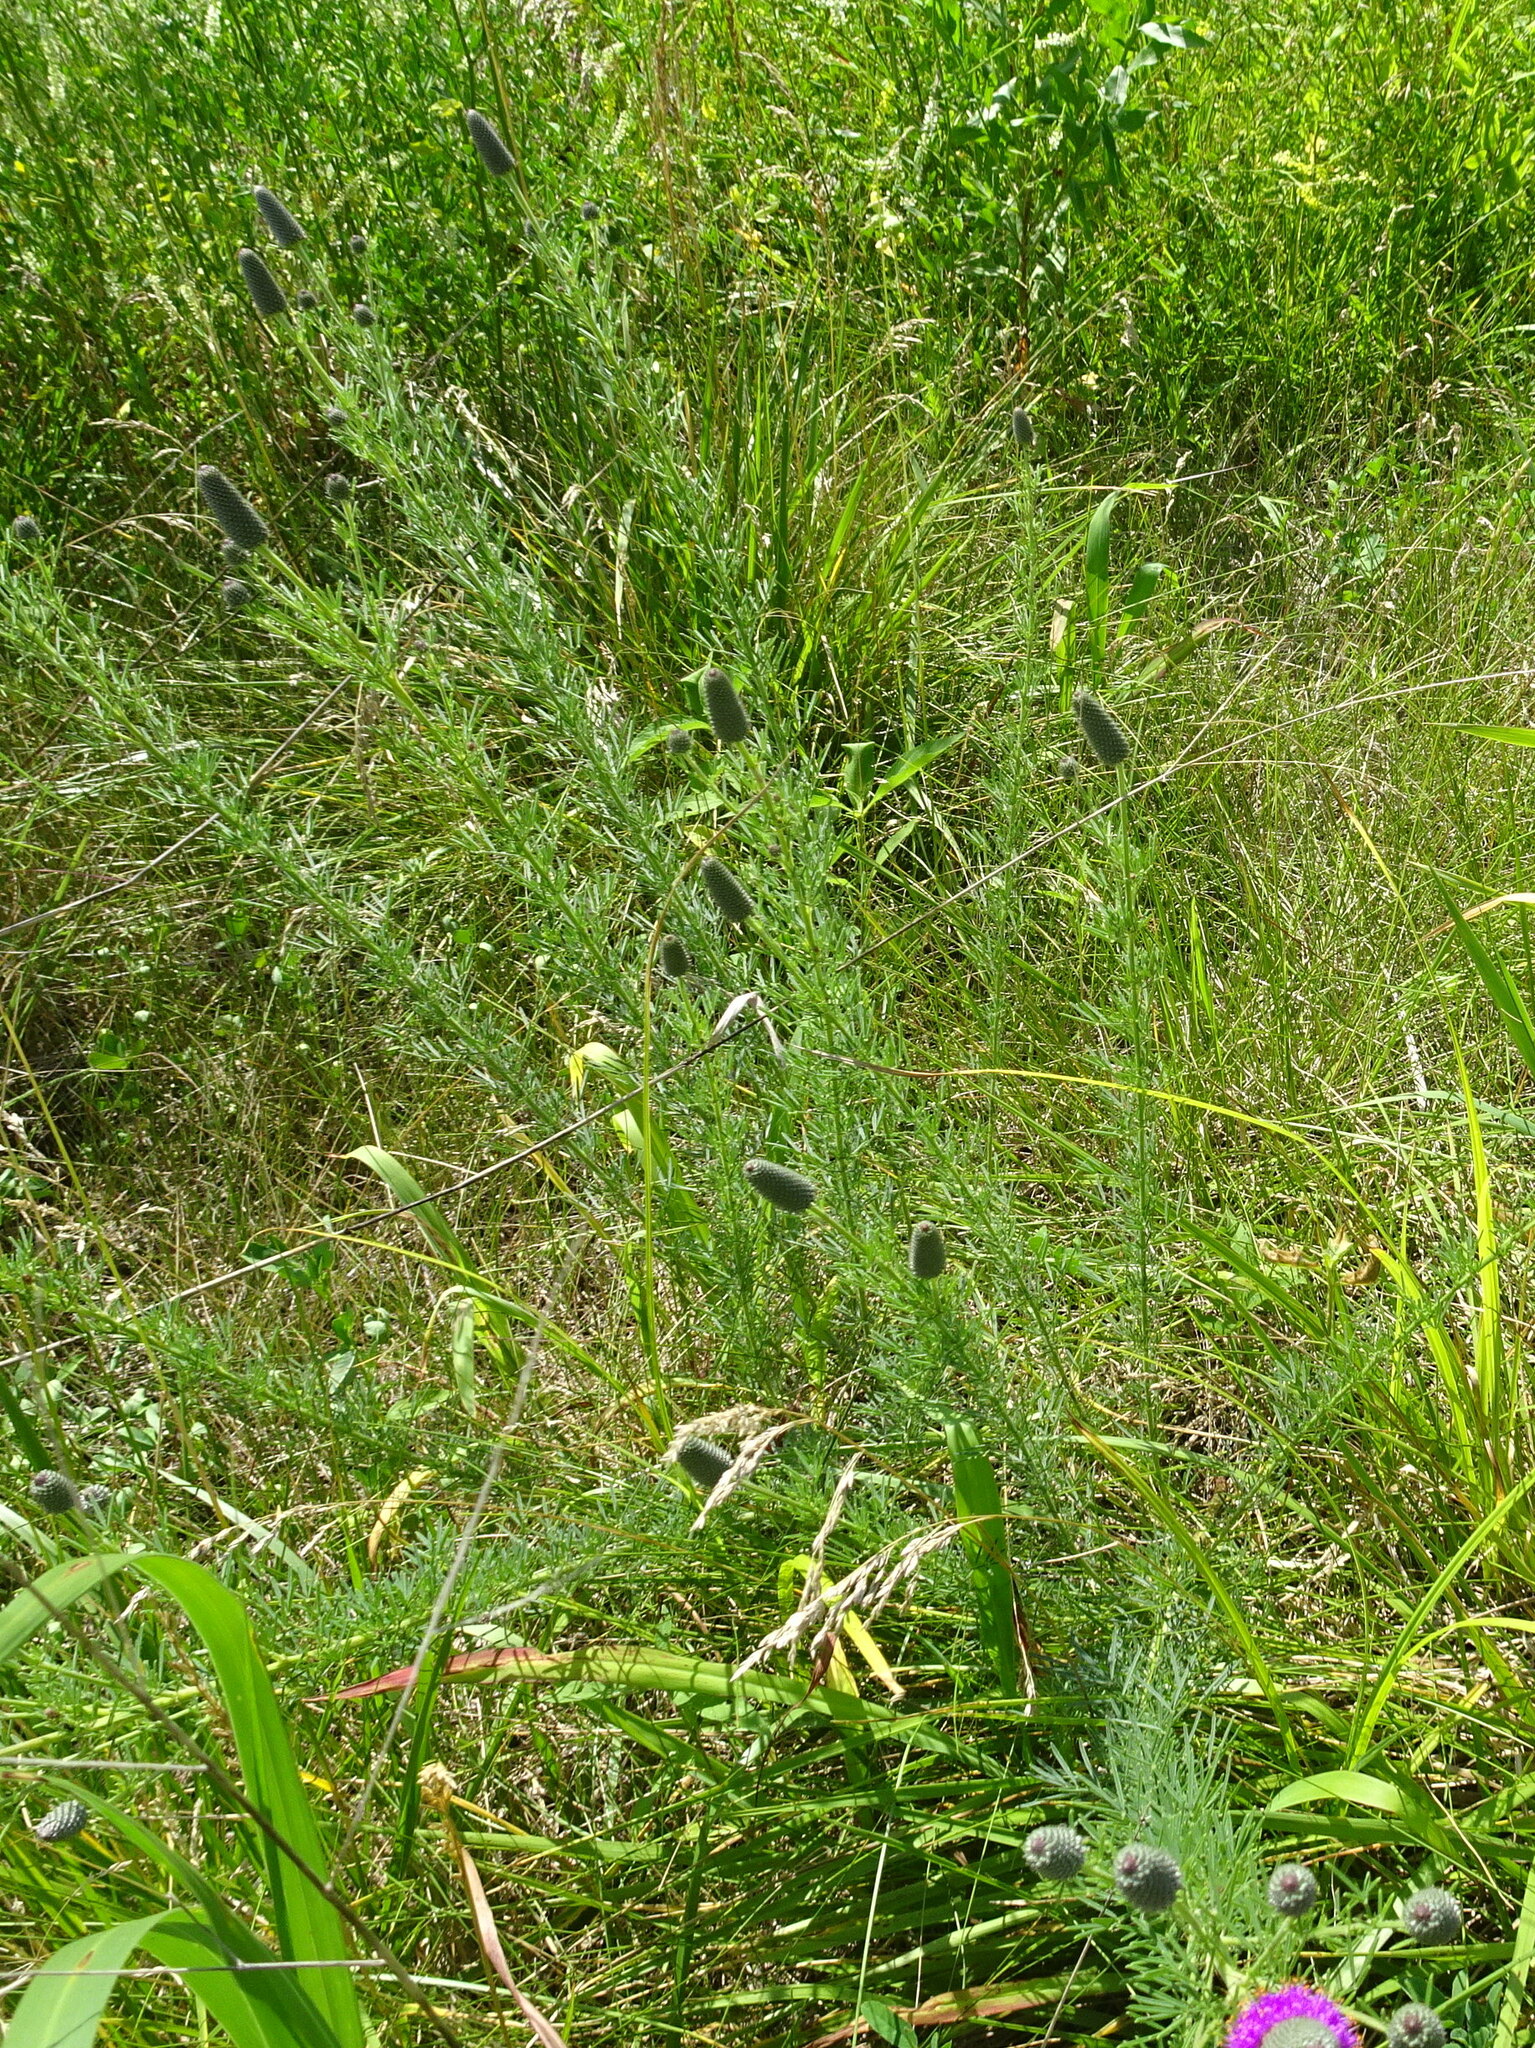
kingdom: Plantae
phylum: Tracheophyta
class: Magnoliopsida
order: Fabales
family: Fabaceae
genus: Dalea
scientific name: Dalea purpurea
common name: Purple prairie-clover
